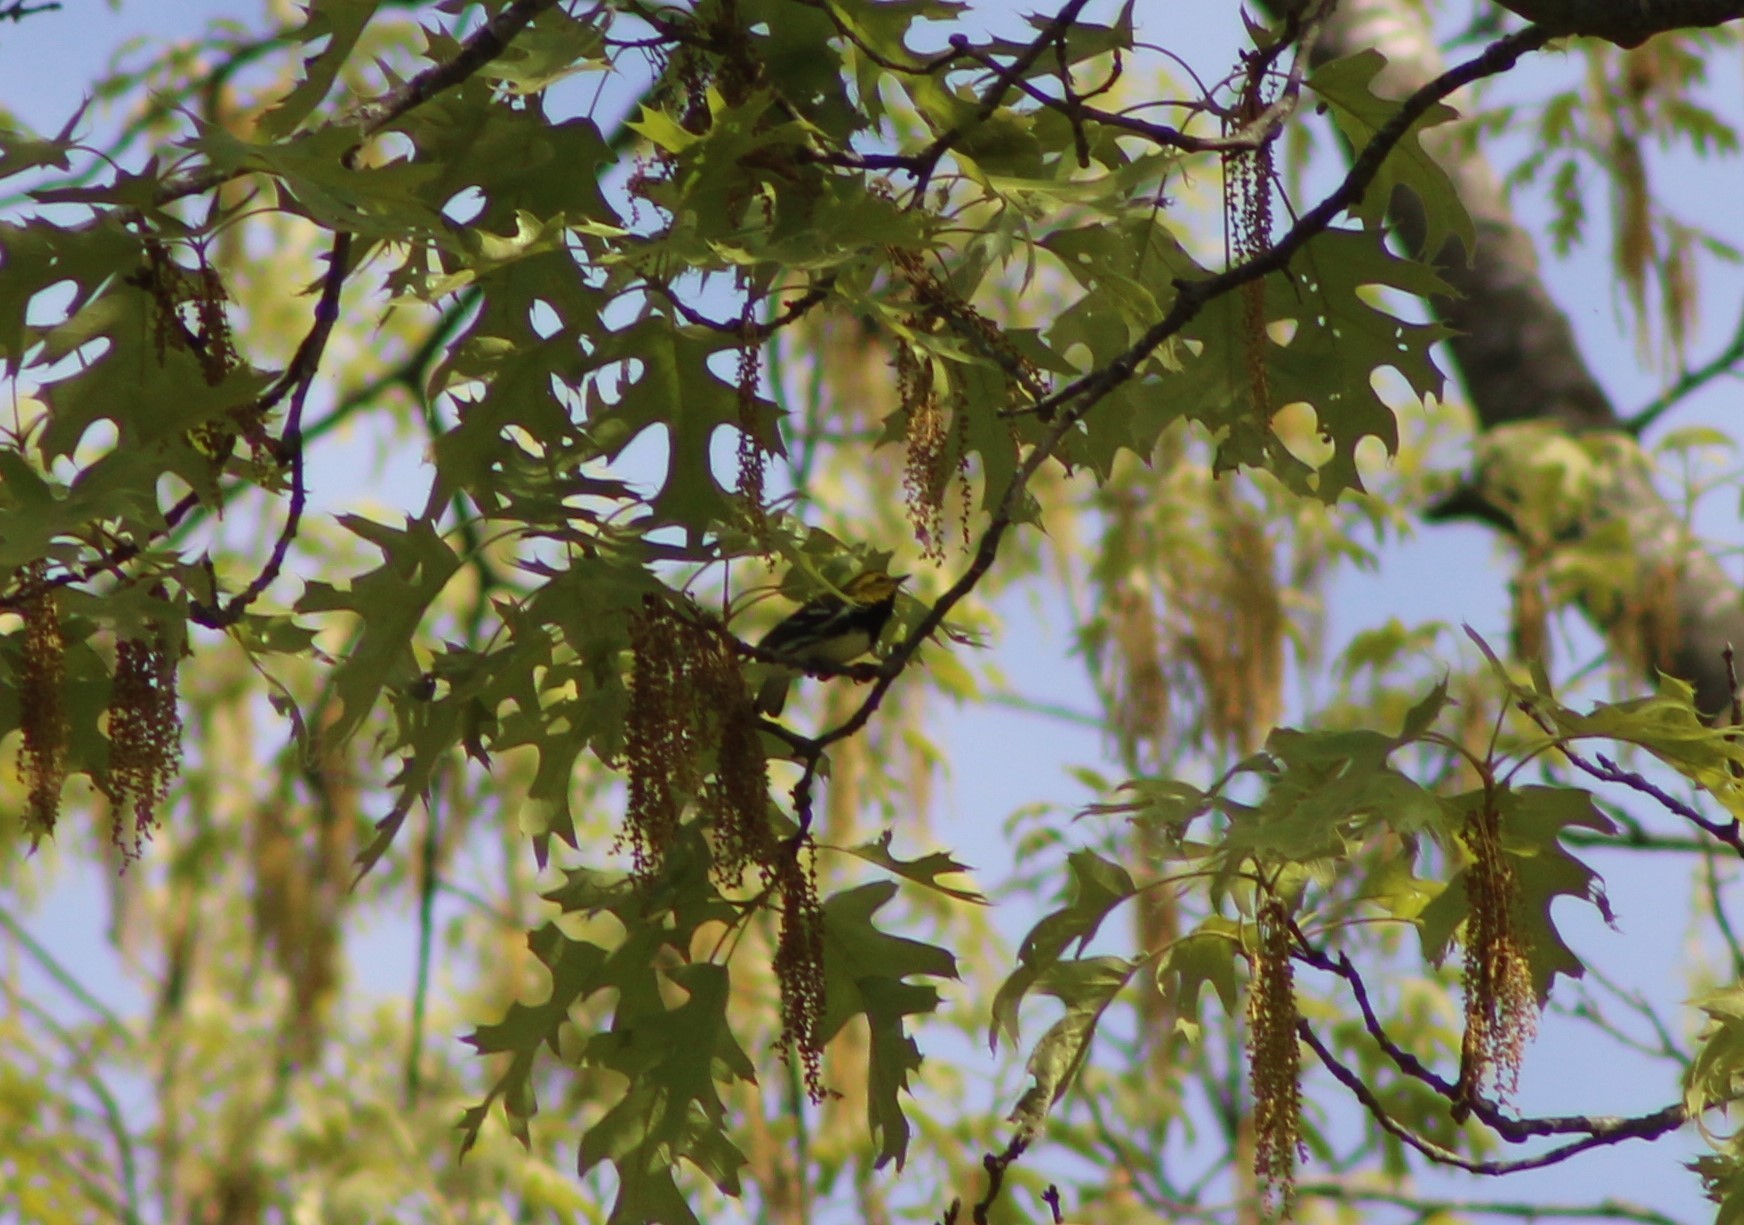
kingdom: Animalia
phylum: Chordata
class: Aves
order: Passeriformes
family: Parulidae
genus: Setophaga
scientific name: Setophaga virens
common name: Black-throated green warbler
